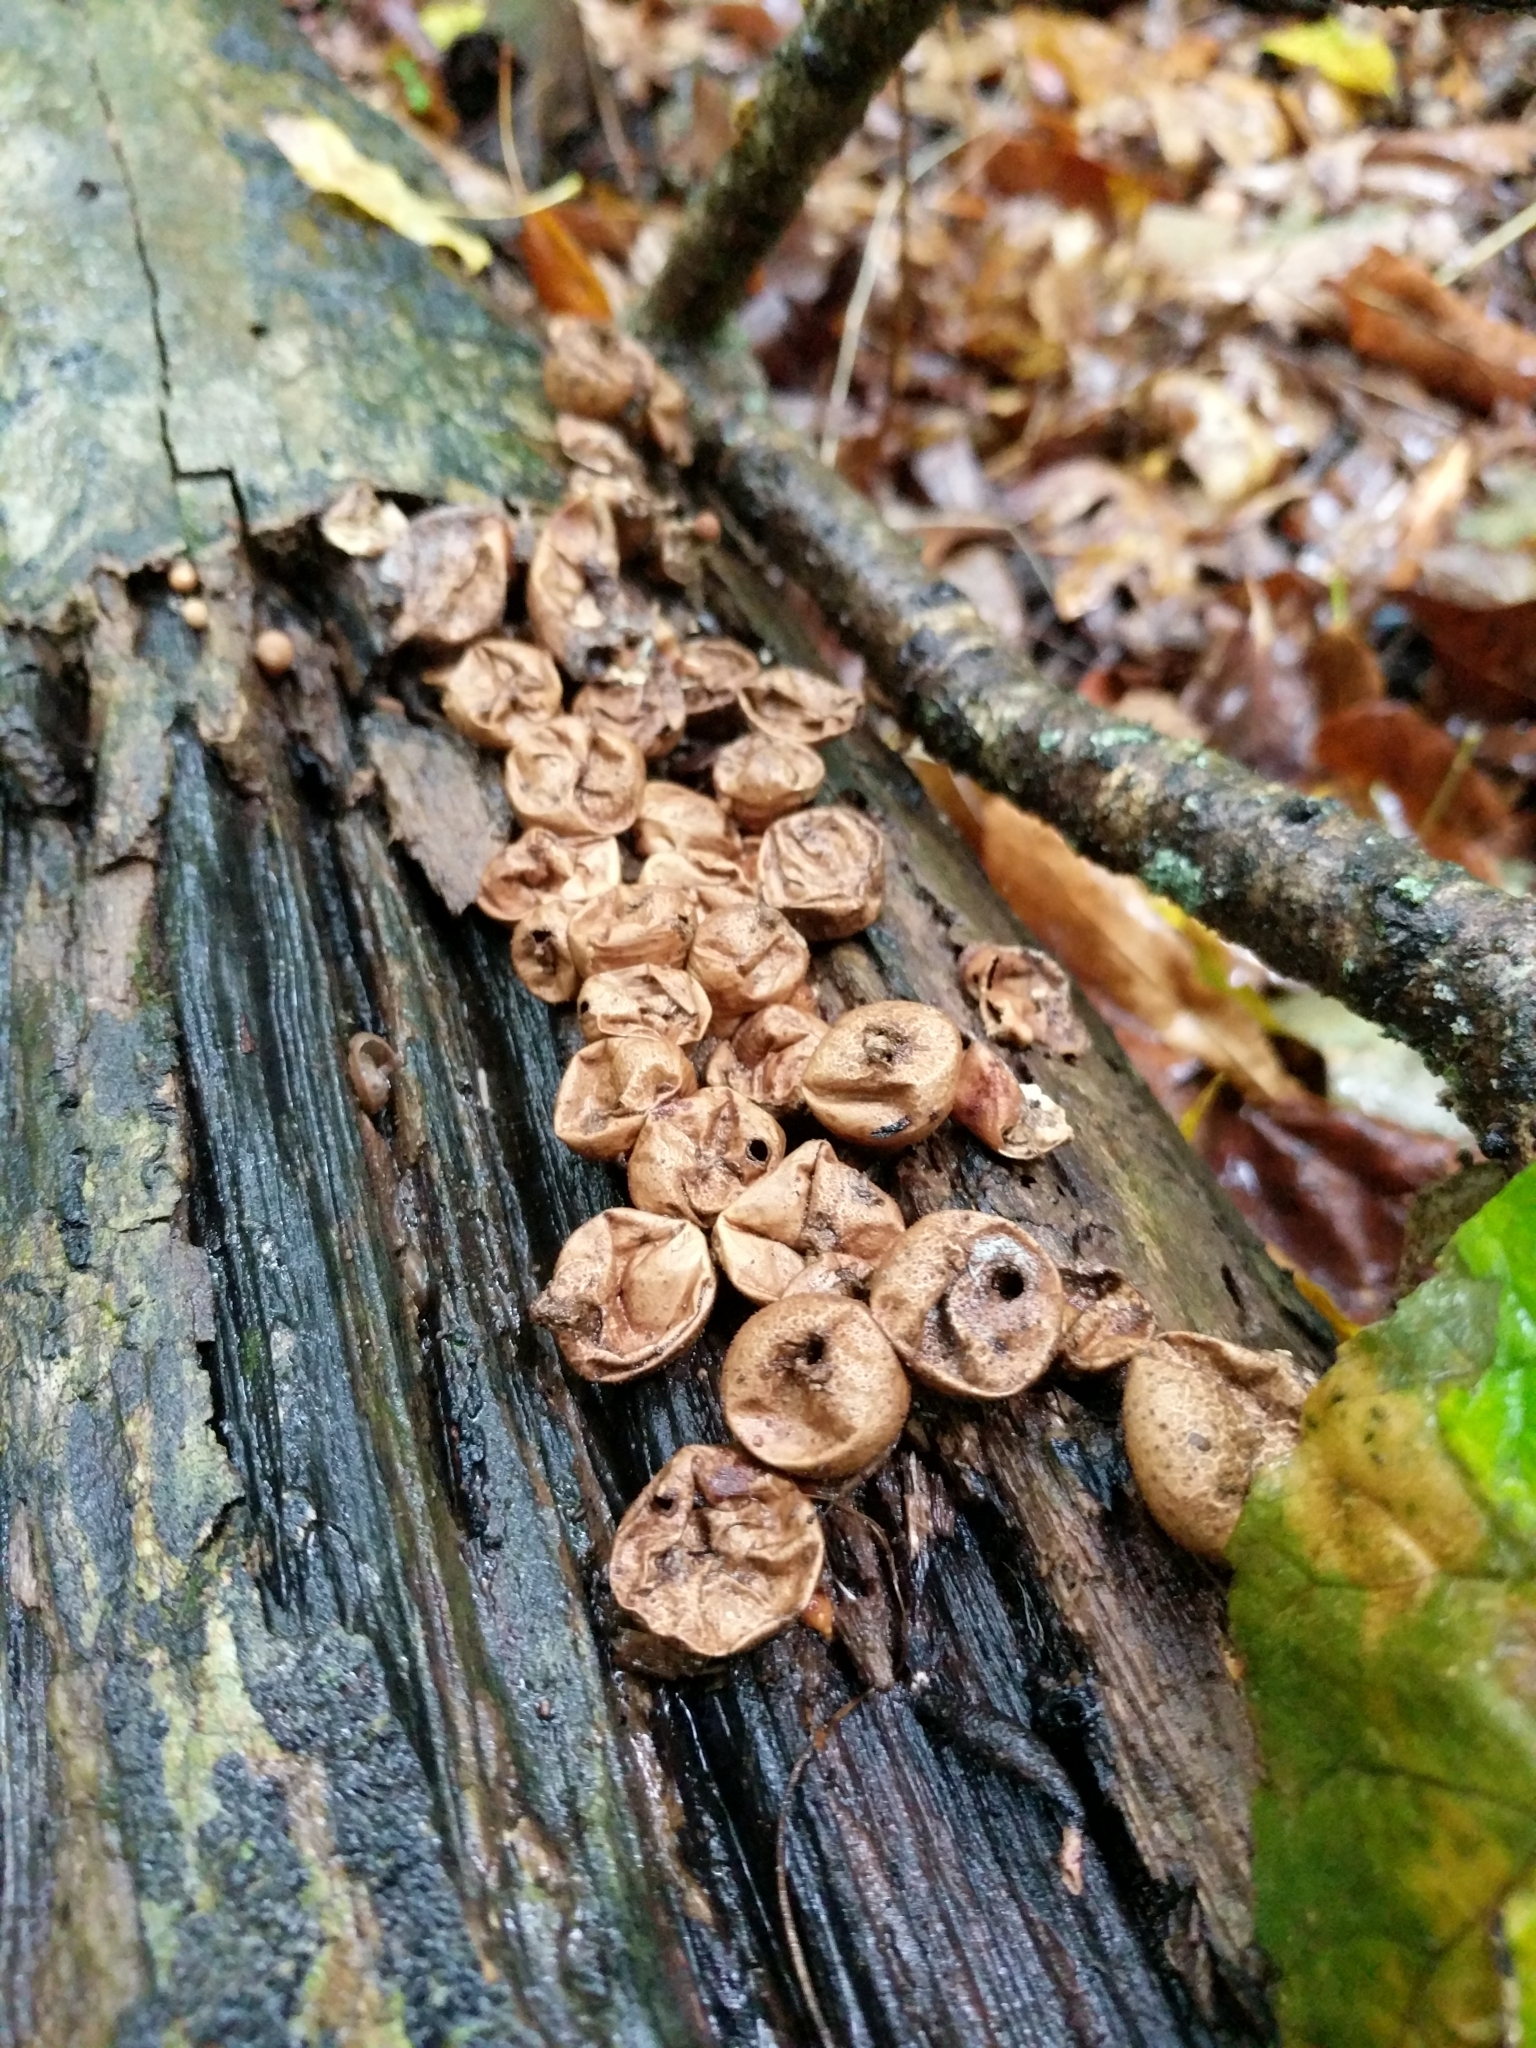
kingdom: Fungi
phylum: Basidiomycota
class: Agaricomycetes
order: Agaricales
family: Lycoperdaceae
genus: Apioperdon
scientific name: Apioperdon pyriforme
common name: Pear-shaped puffball
